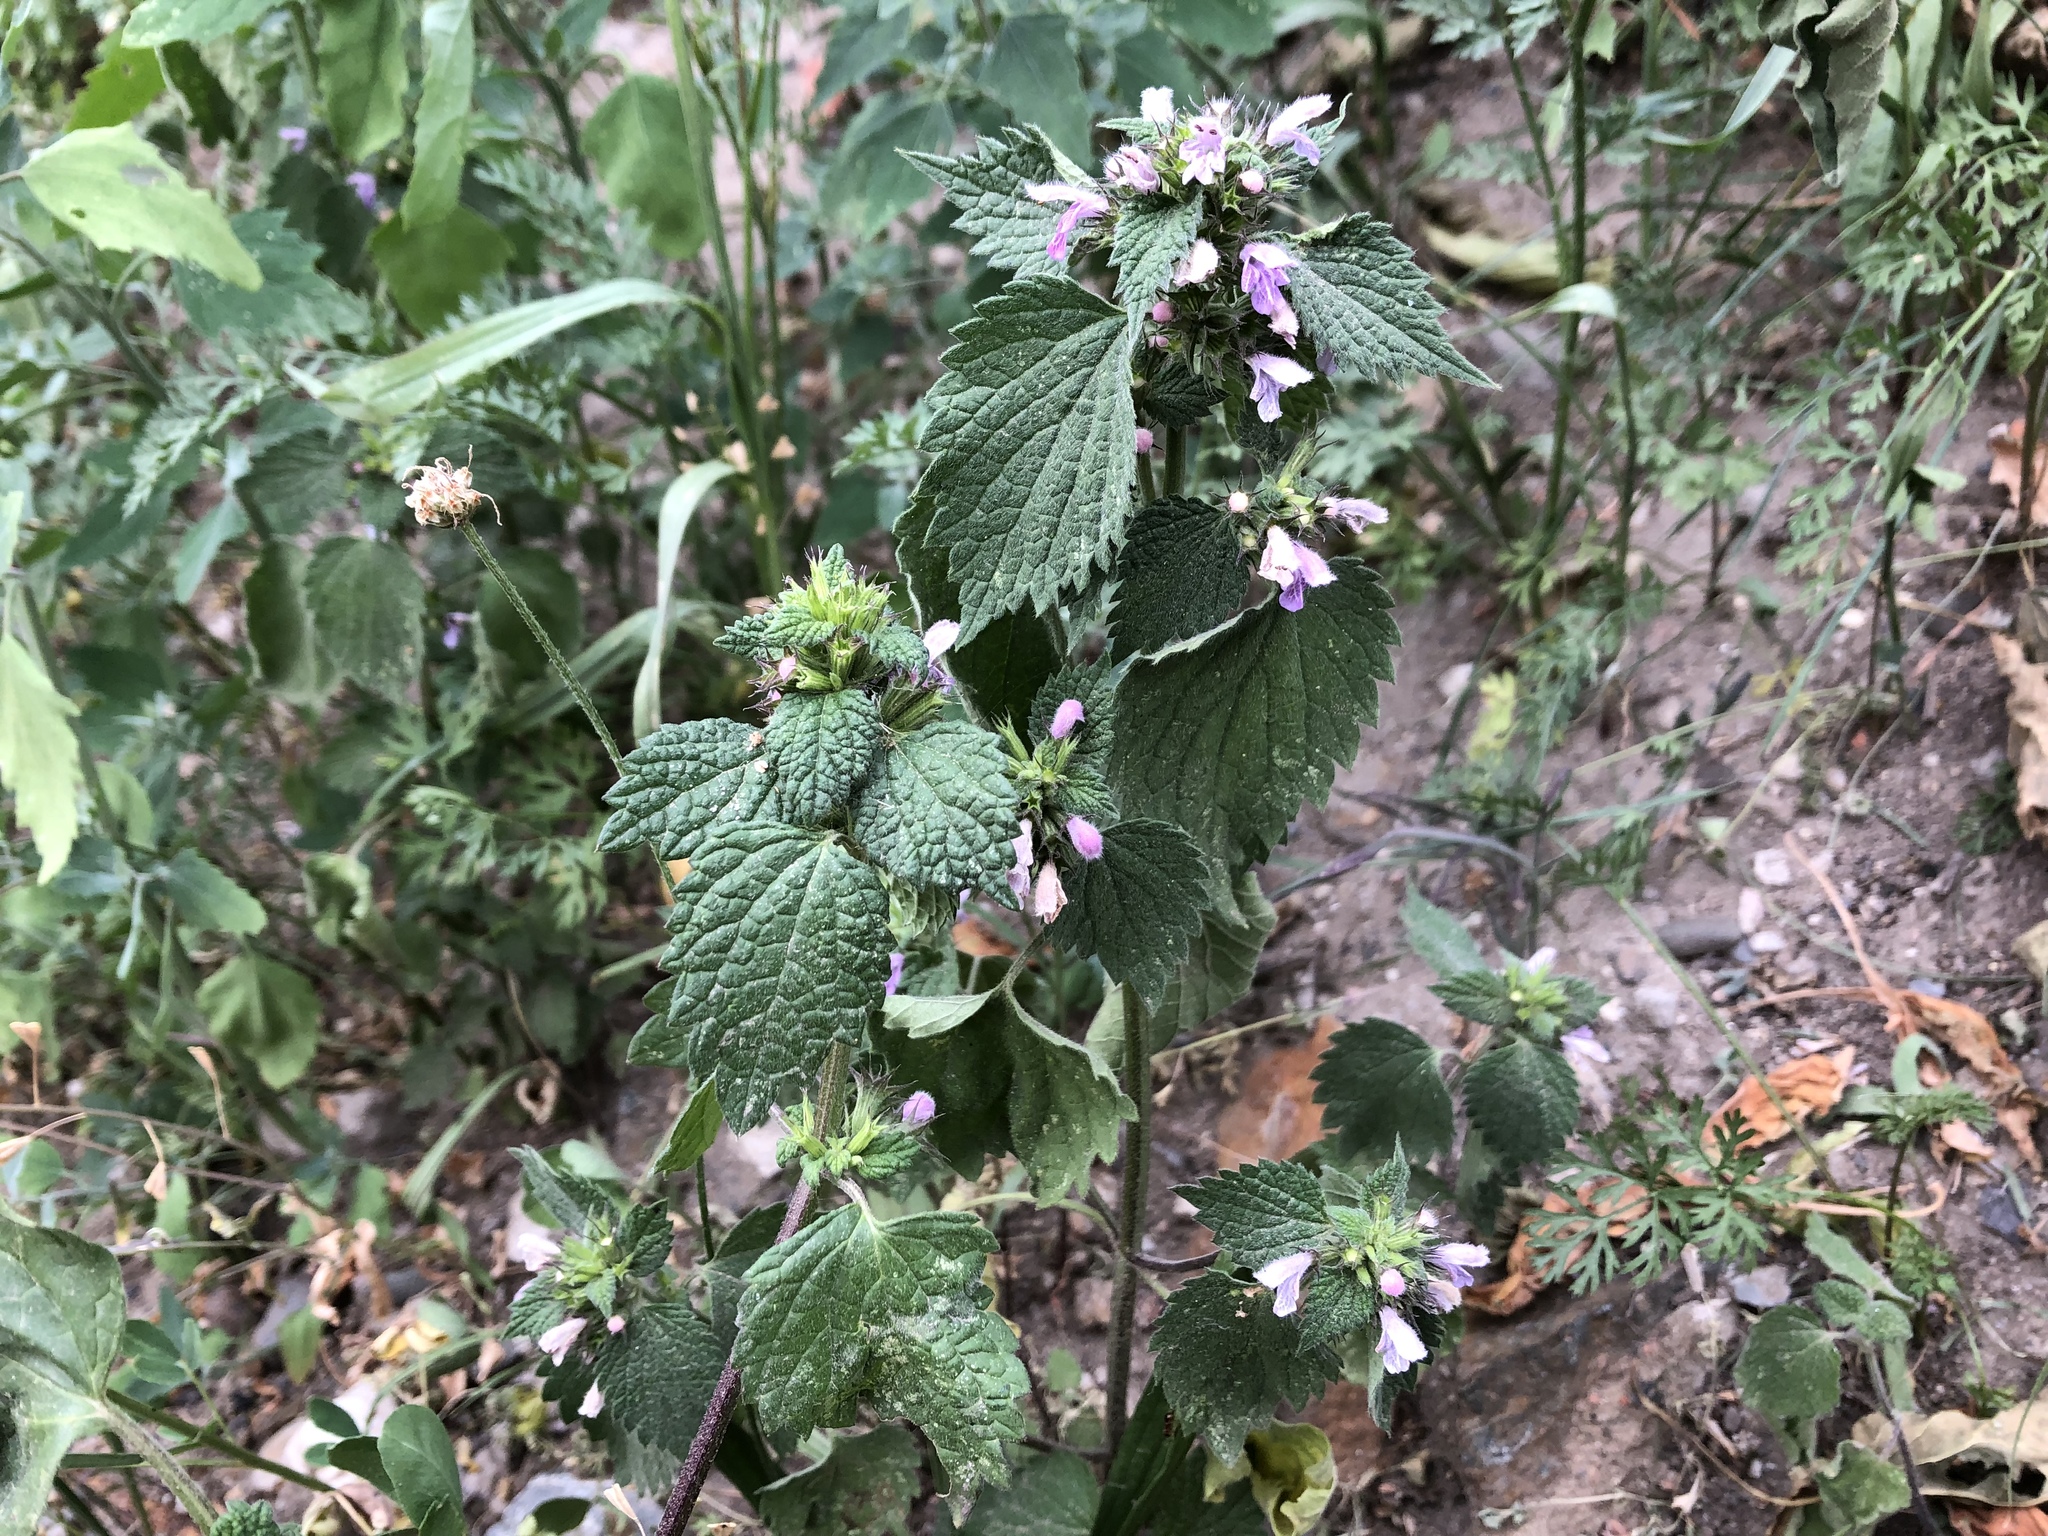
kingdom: Plantae
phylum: Tracheophyta
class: Magnoliopsida
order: Lamiales
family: Lamiaceae
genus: Ballota
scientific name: Ballota nigra
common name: Black horehound
